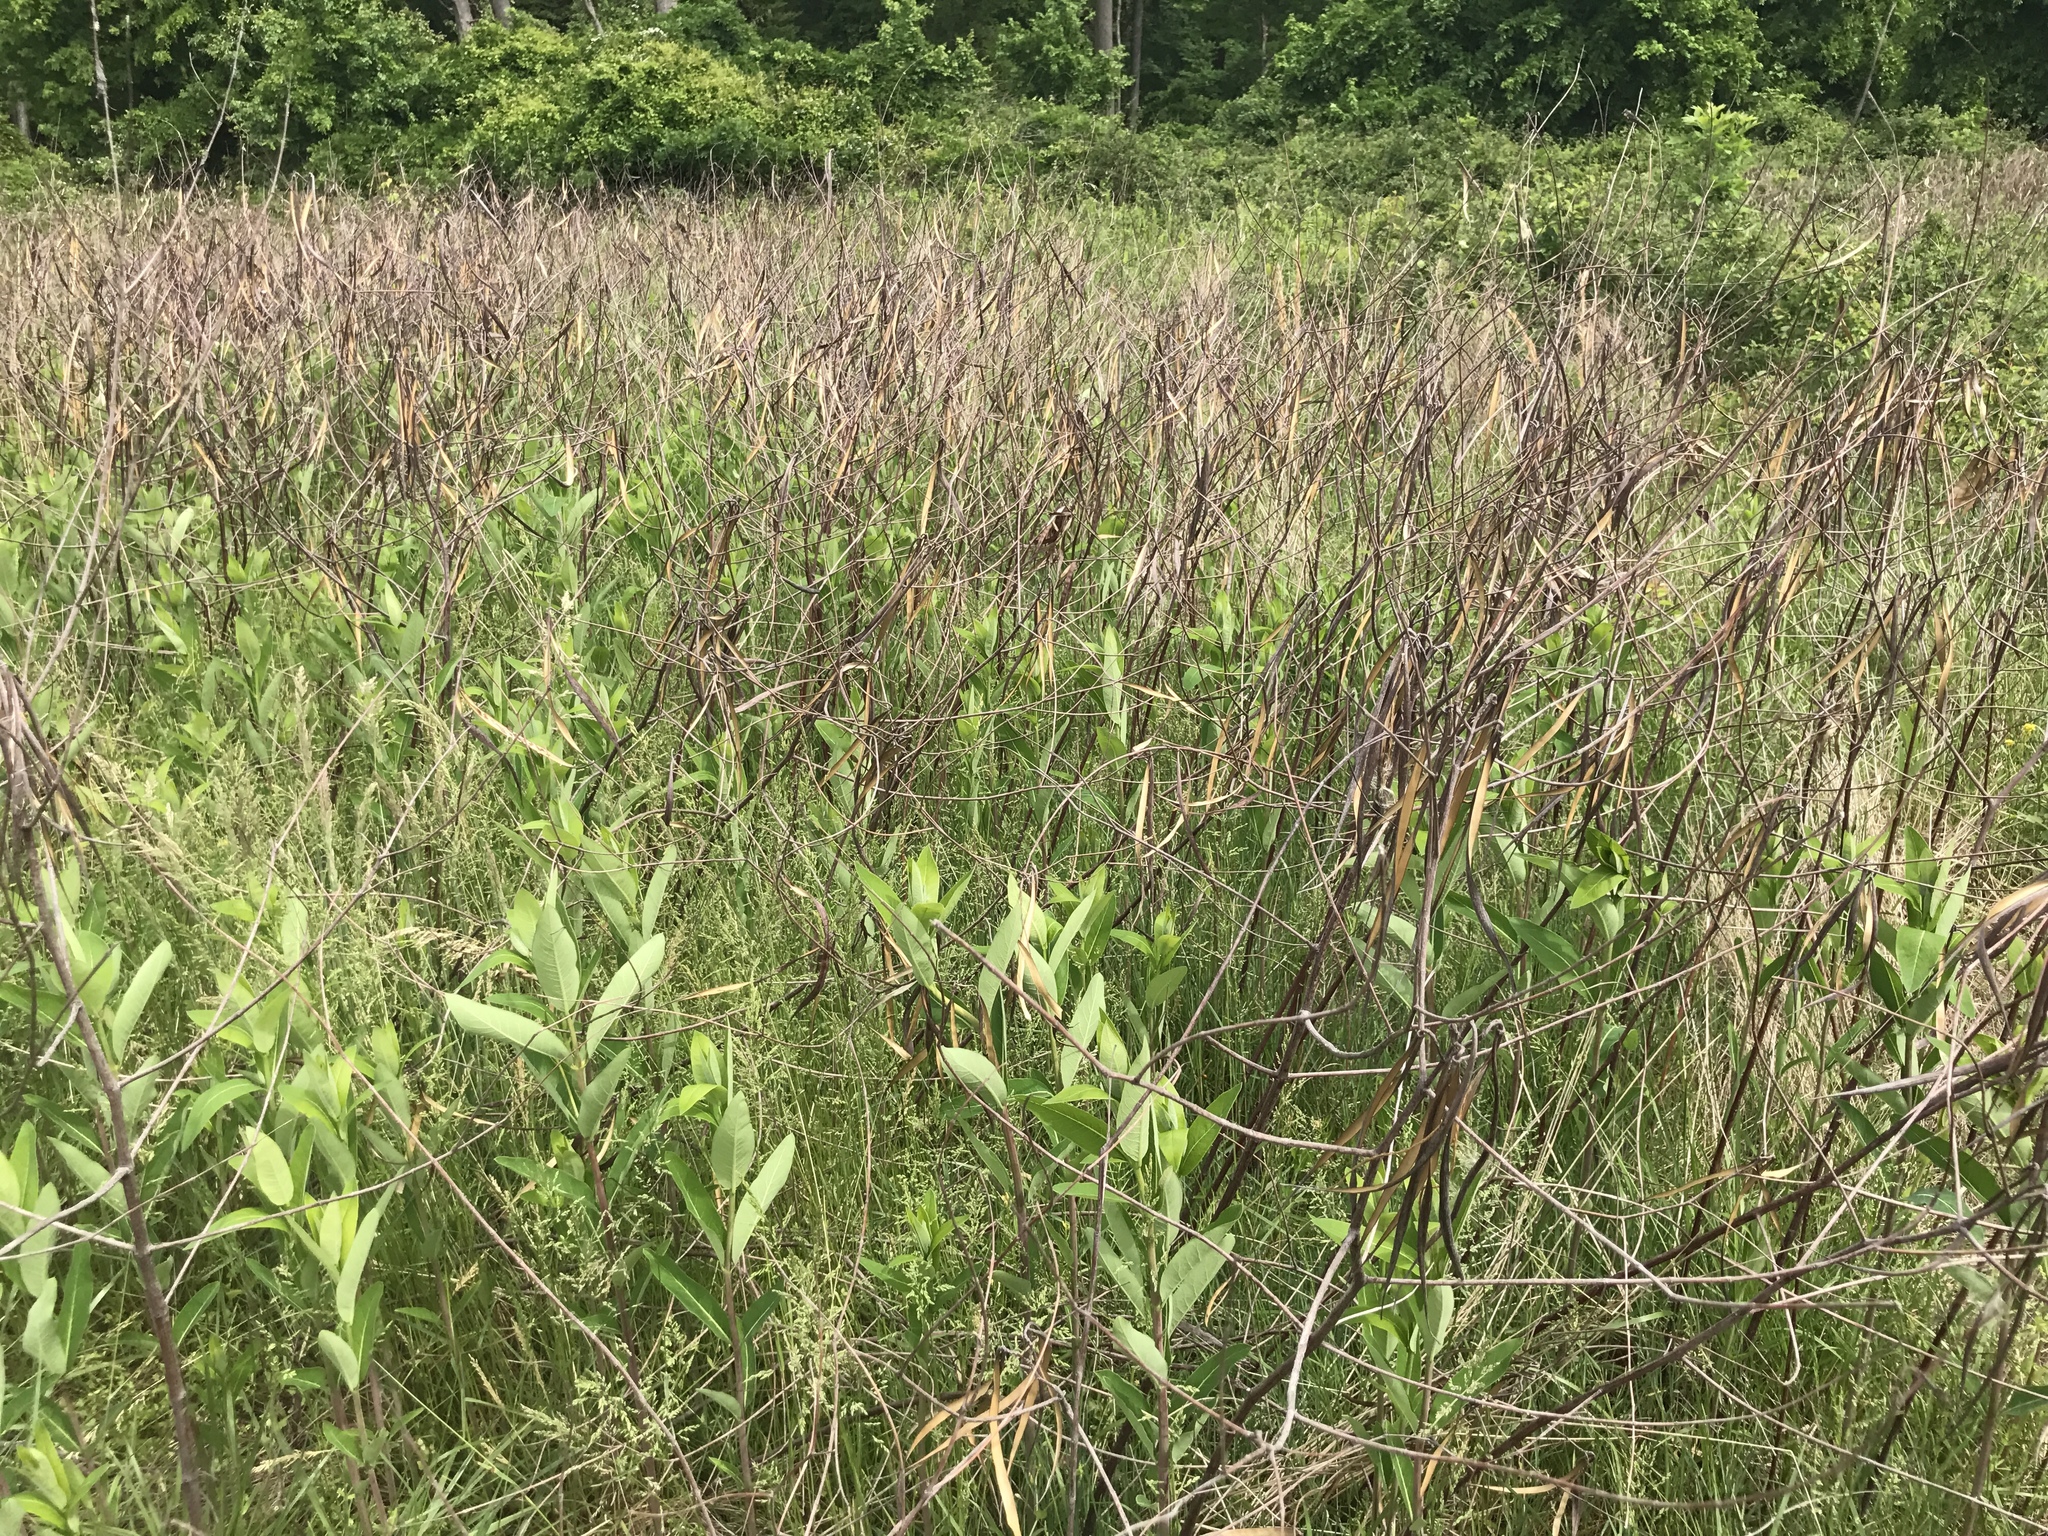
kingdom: Plantae
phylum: Tracheophyta
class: Magnoliopsida
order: Gentianales
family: Apocynaceae
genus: Apocynum
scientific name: Apocynum cannabinum
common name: Hemp dogbane
